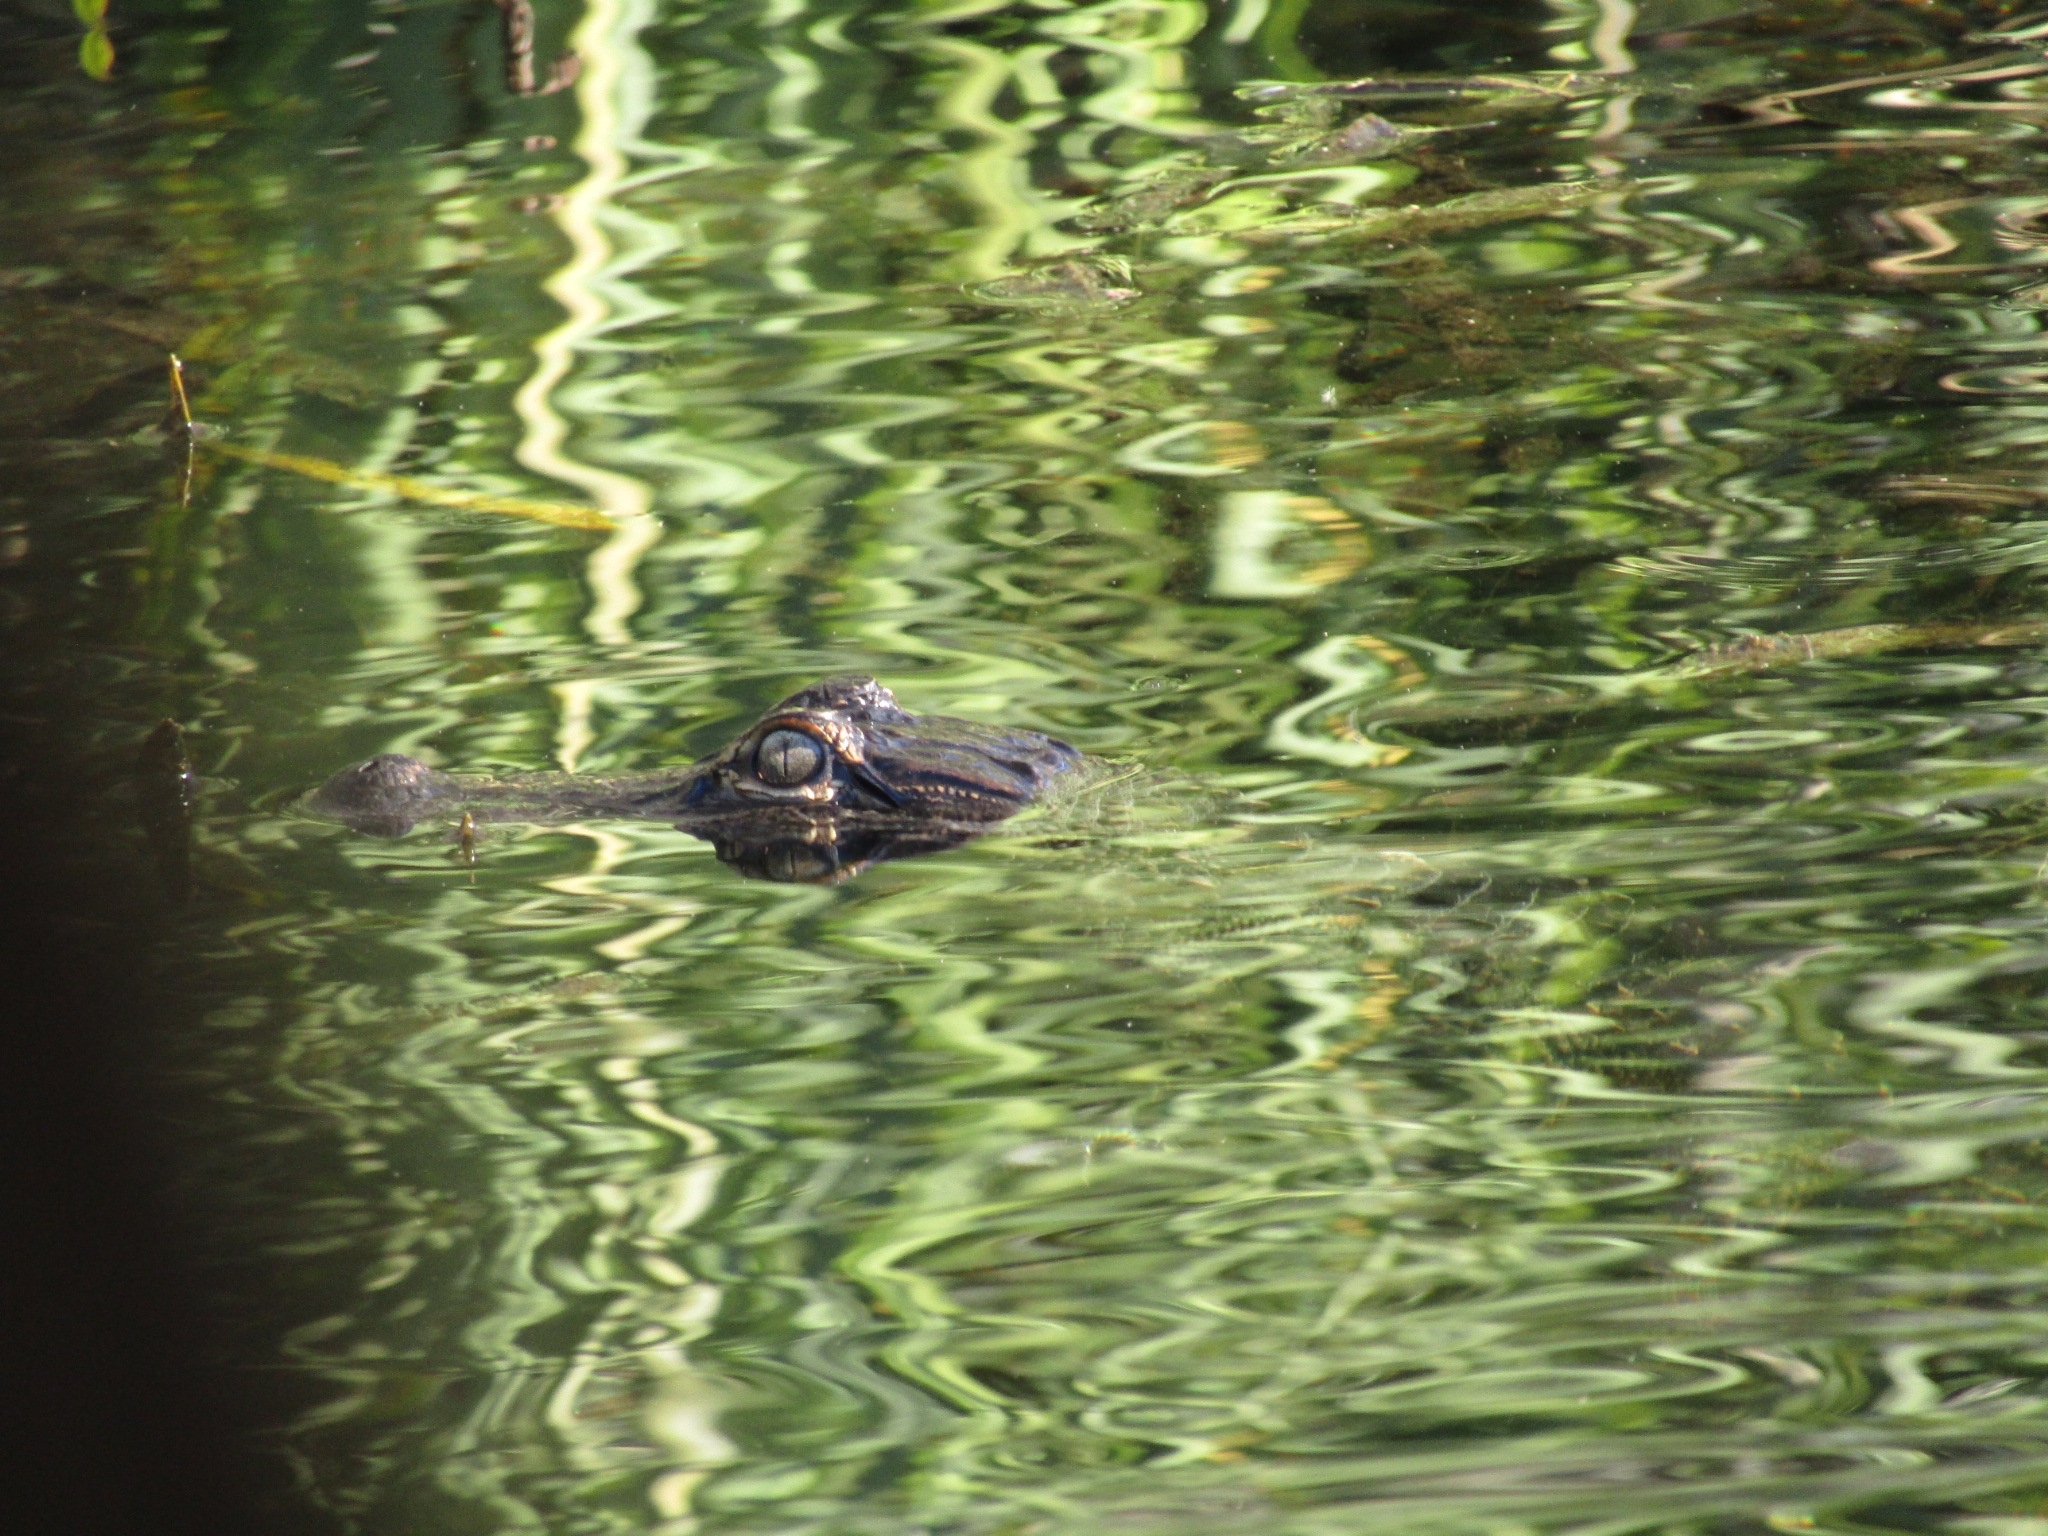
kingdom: Animalia
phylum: Chordata
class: Crocodylia
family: Alligatoridae
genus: Alligator
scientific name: Alligator mississippiensis
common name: American alligator
